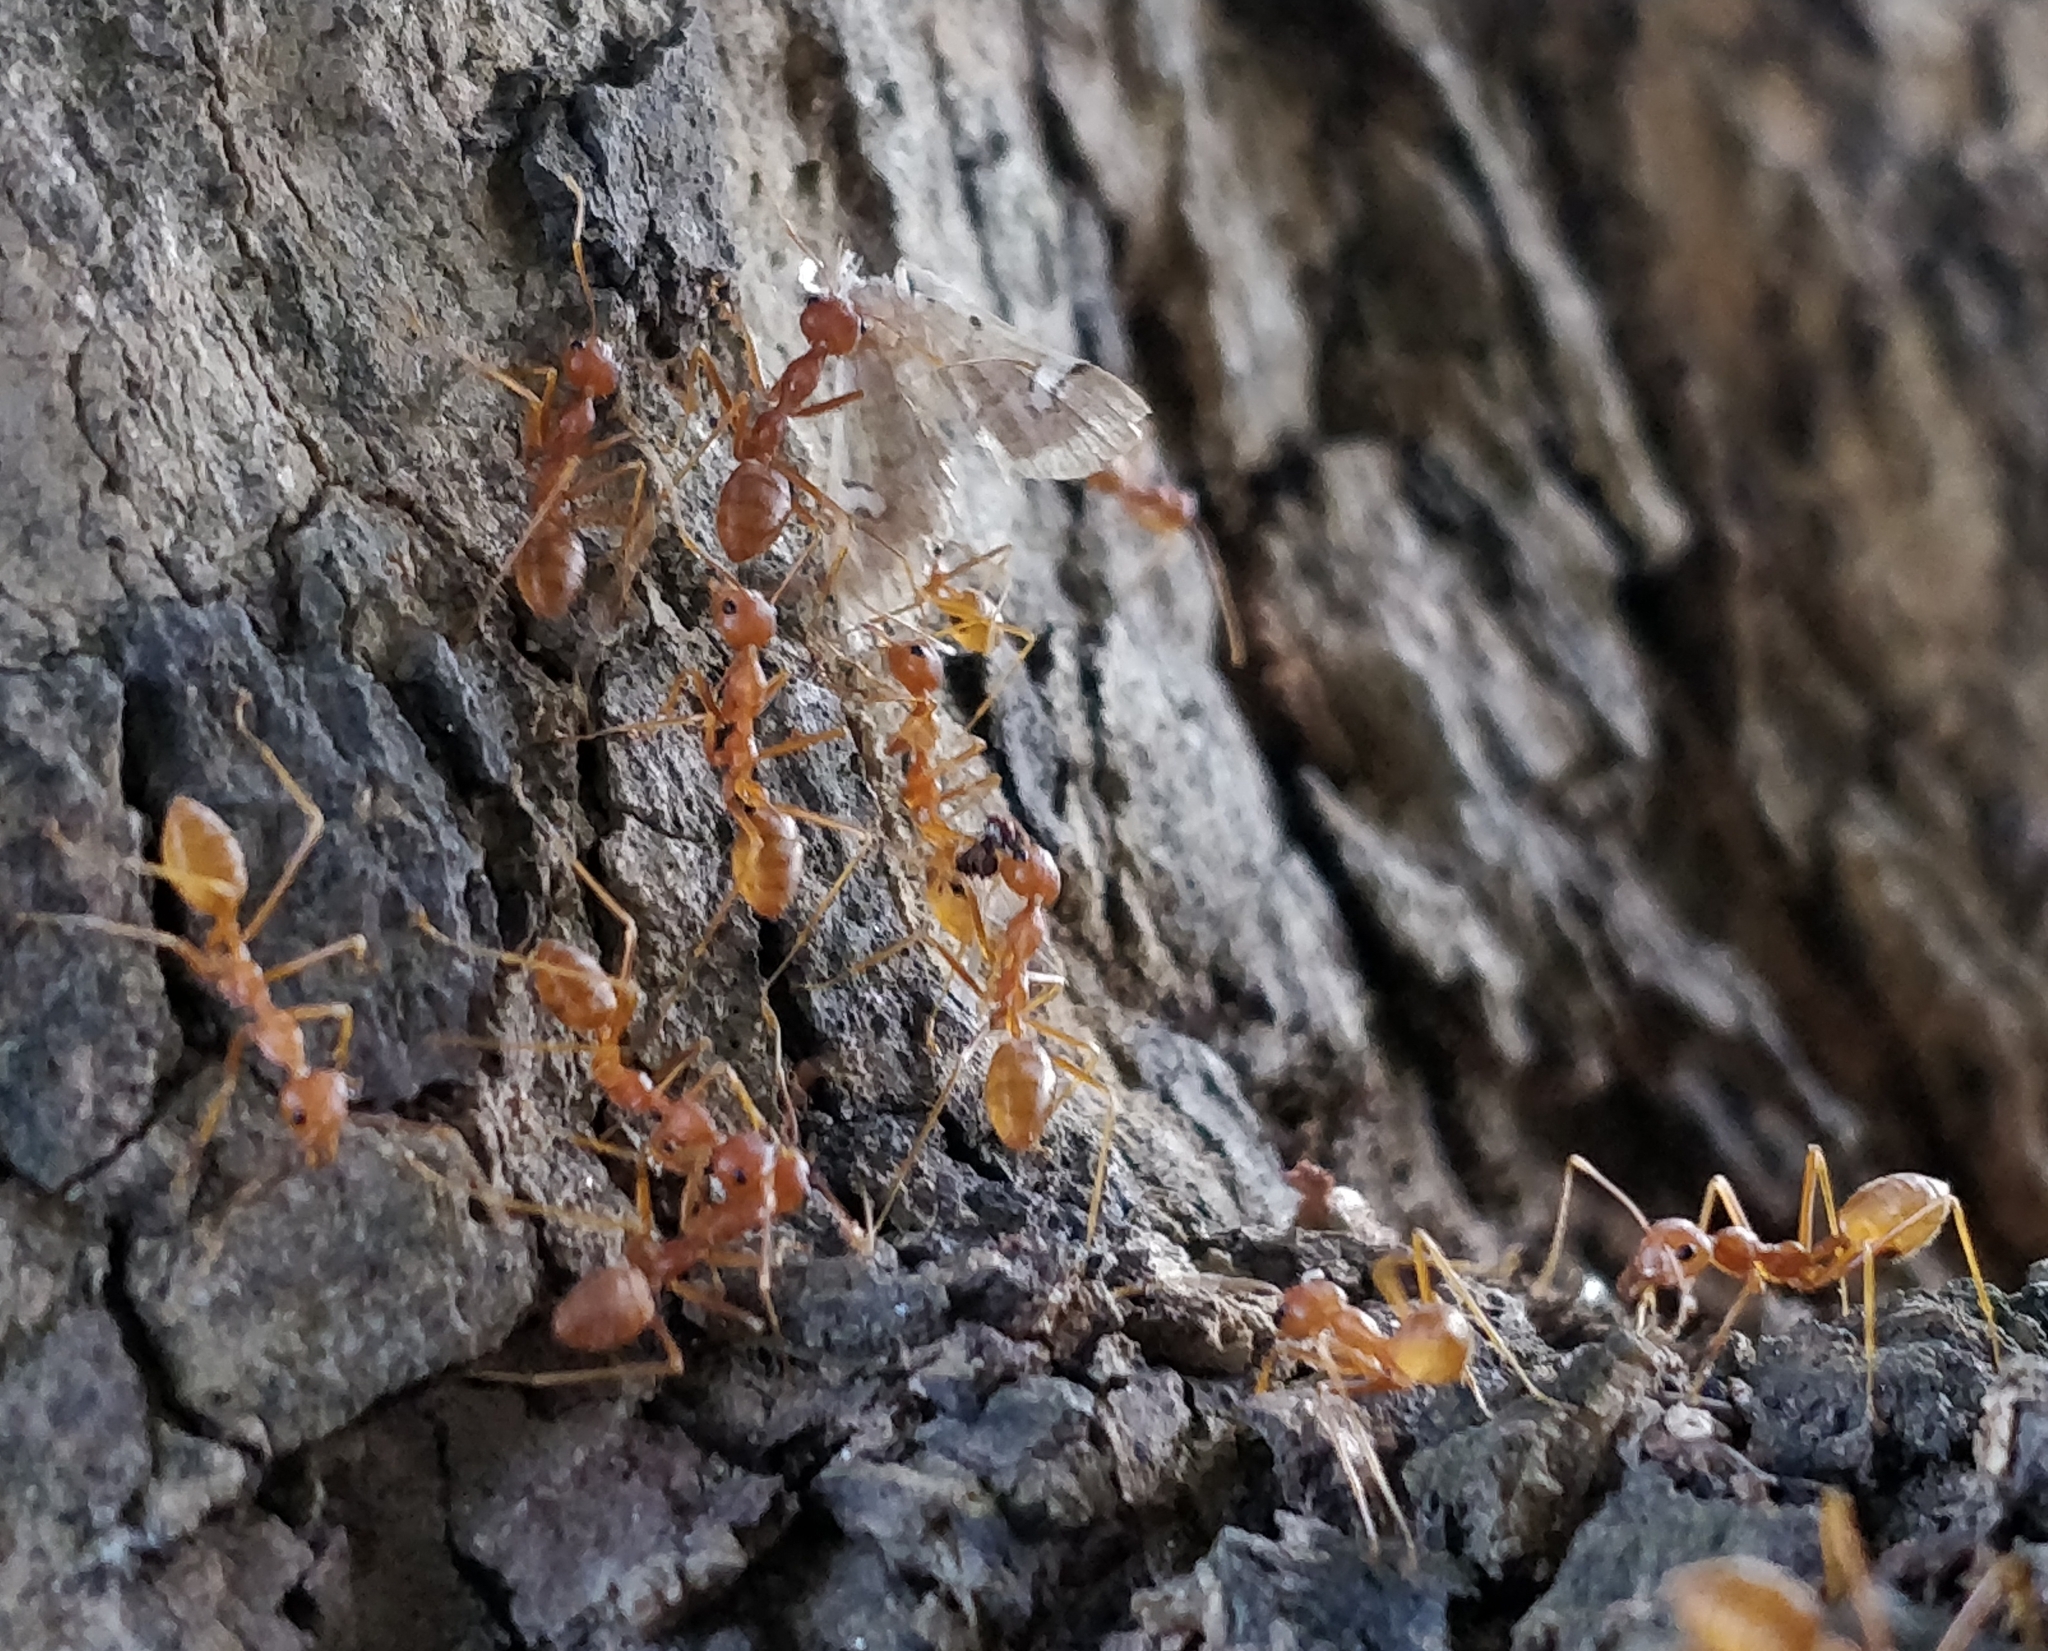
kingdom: Animalia
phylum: Arthropoda
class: Insecta
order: Hymenoptera
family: Formicidae
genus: Oecophylla
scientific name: Oecophylla smaragdina
